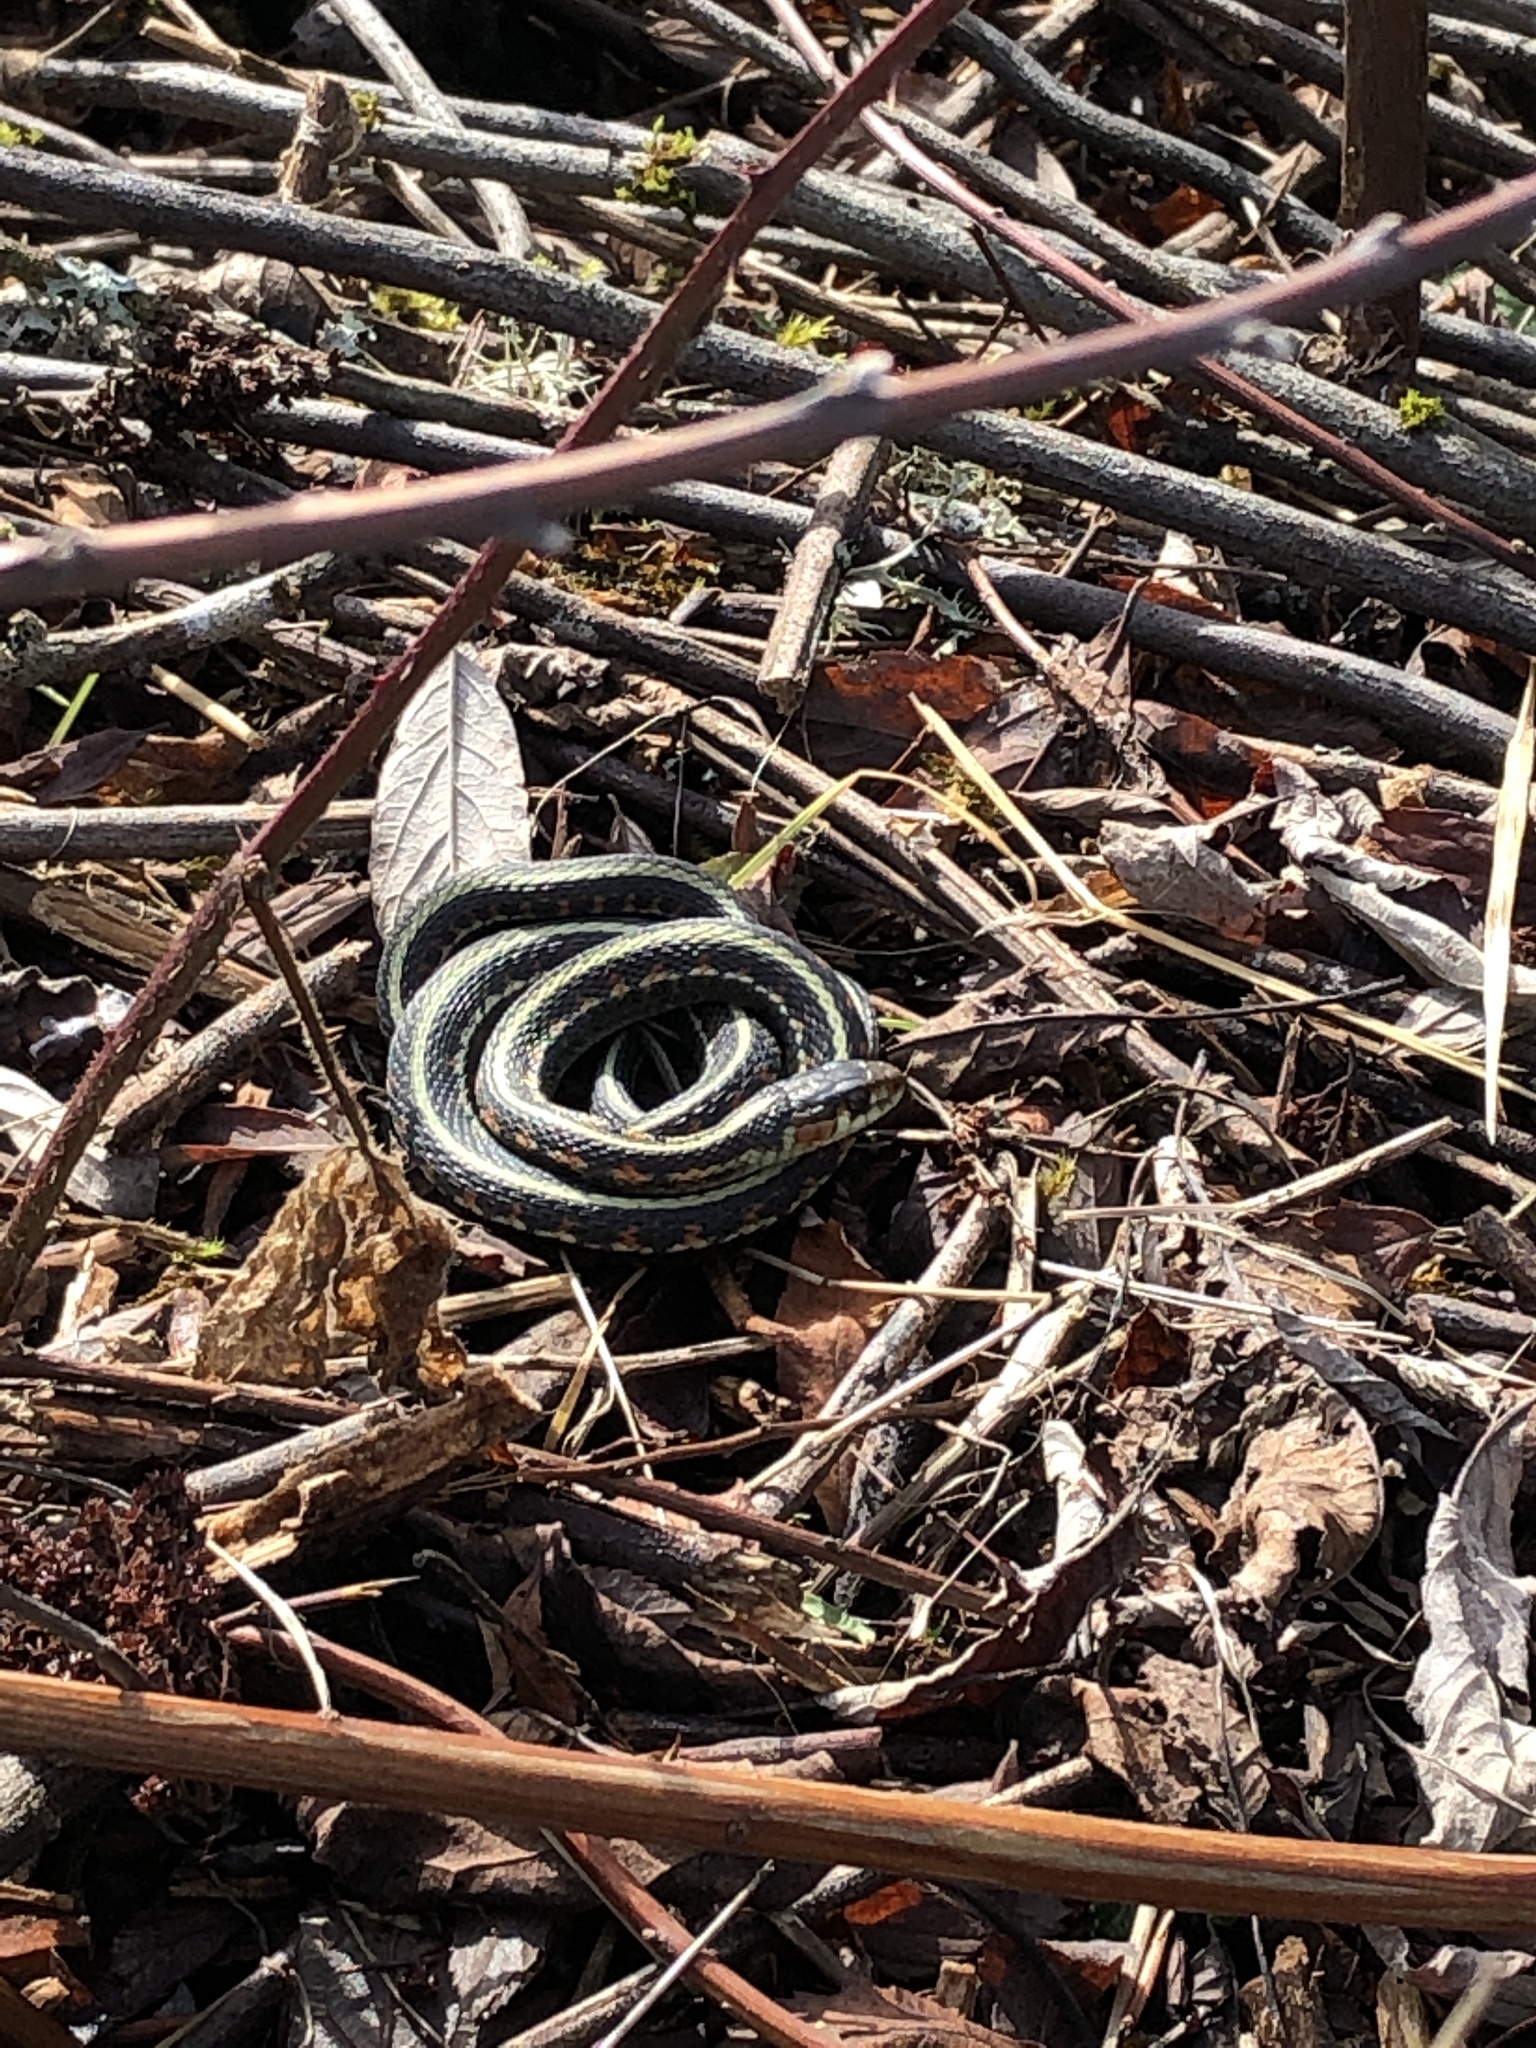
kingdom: Animalia
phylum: Chordata
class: Squamata
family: Colubridae
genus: Thamnophis
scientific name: Thamnophis sirtalis
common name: Common garter snake
